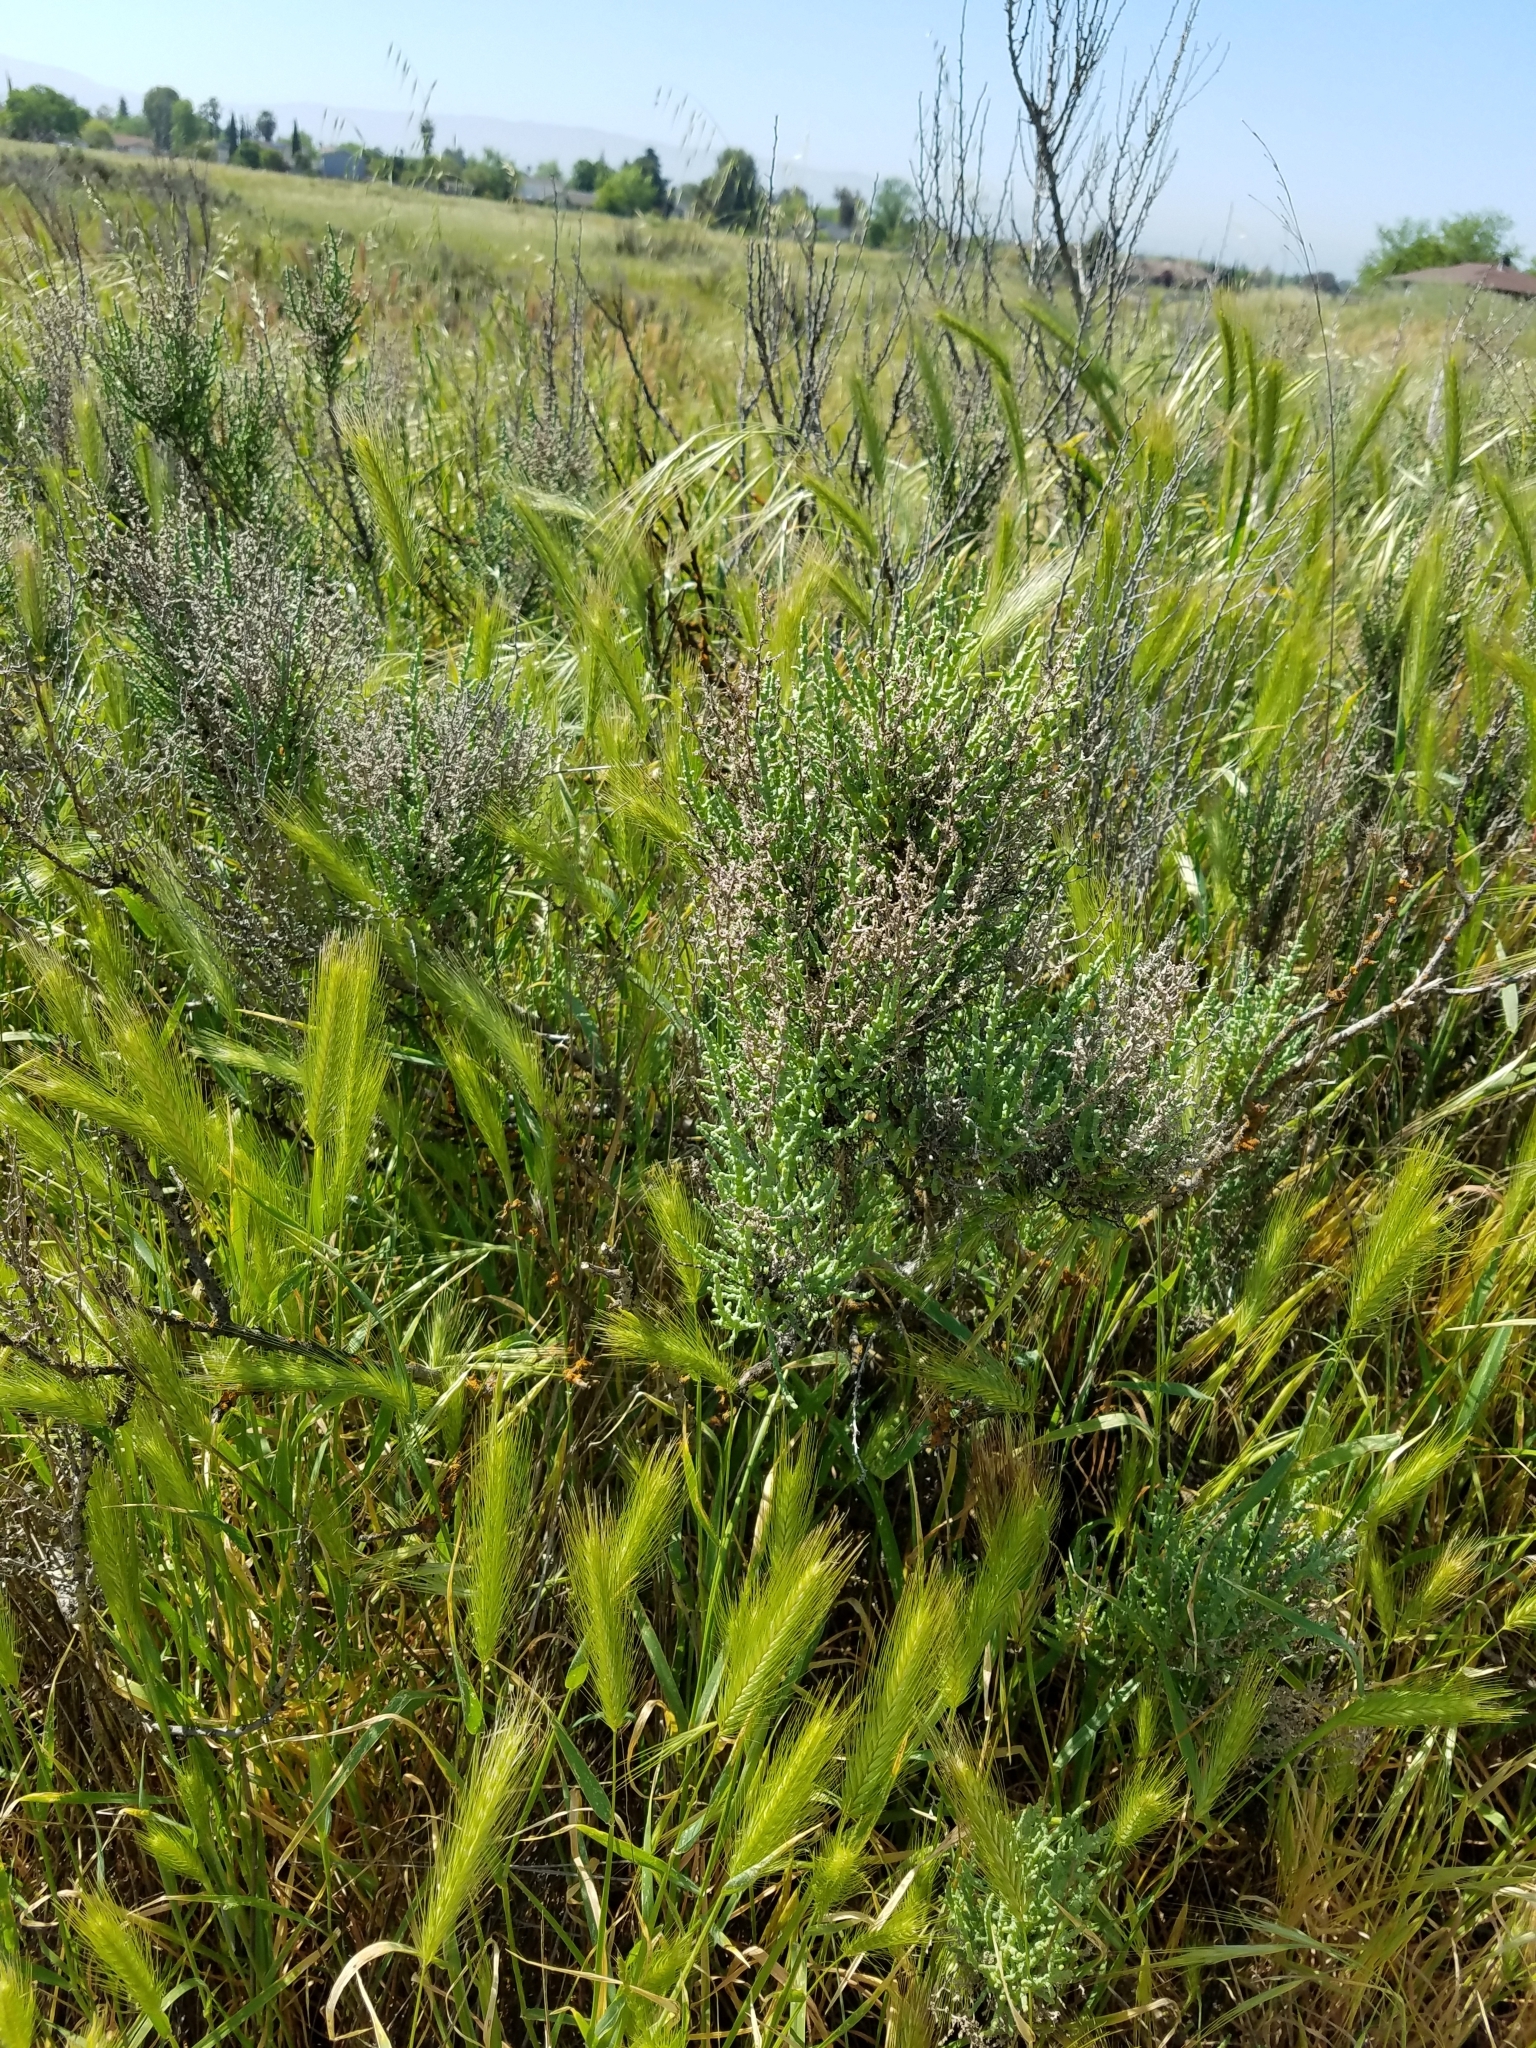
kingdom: Plantae
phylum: Tracheophyta
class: Magnoliopsida
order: Caryophyllales
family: Amaranthaceae
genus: Allenrolfea
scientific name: Allenrolfea occidentalis
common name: Iodine-bush
